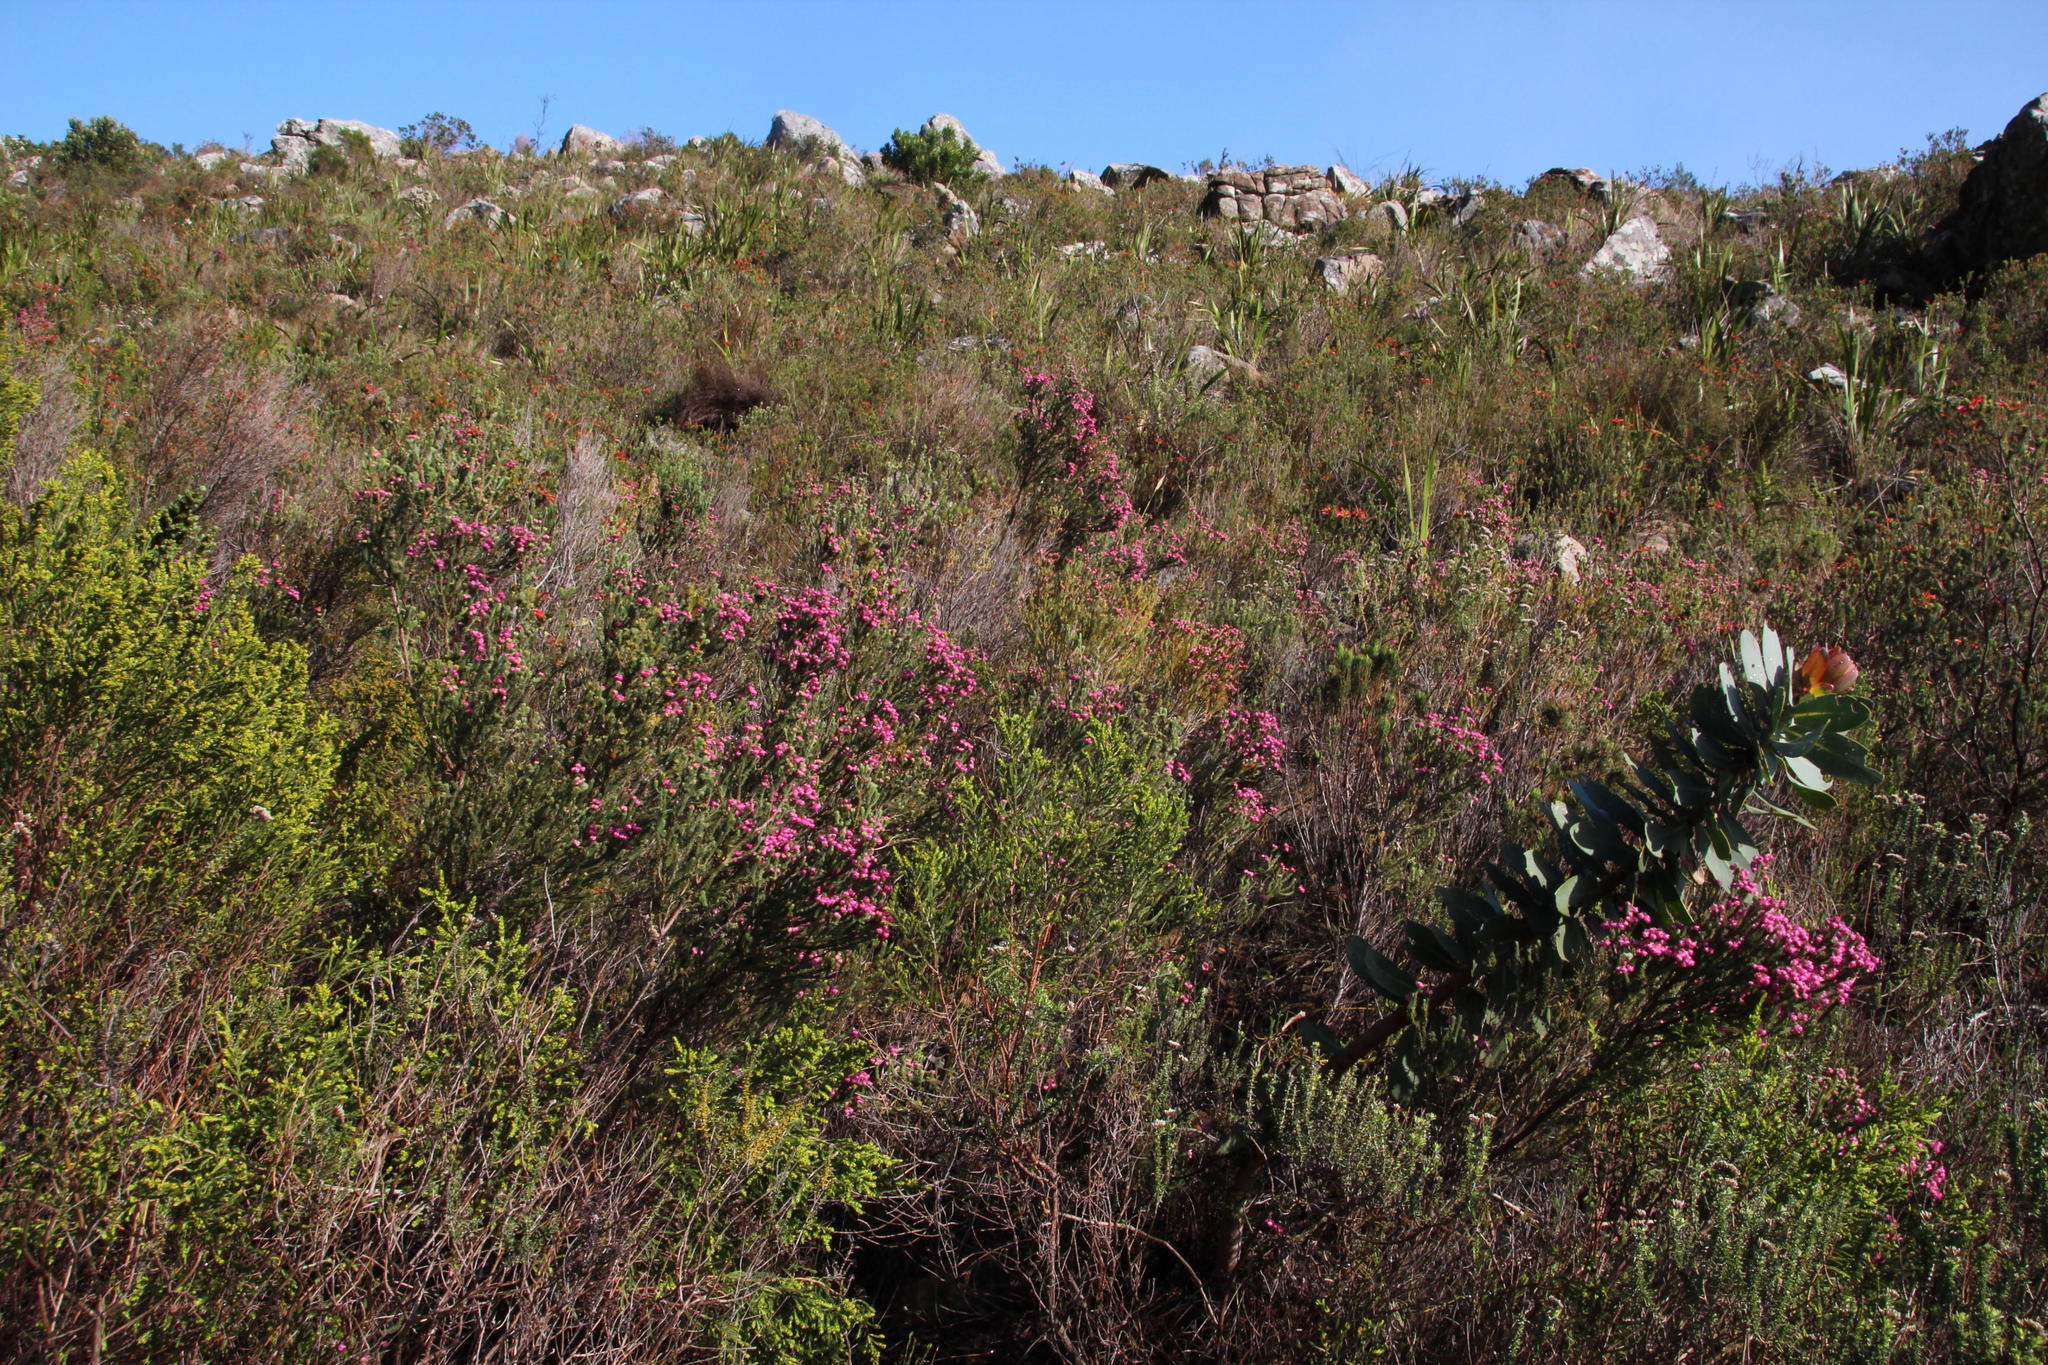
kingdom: Plantae
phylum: Tracheophyta
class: Magnoliopsida
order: Ericales
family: Ericaceae
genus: Erica
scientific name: Erica baccans
